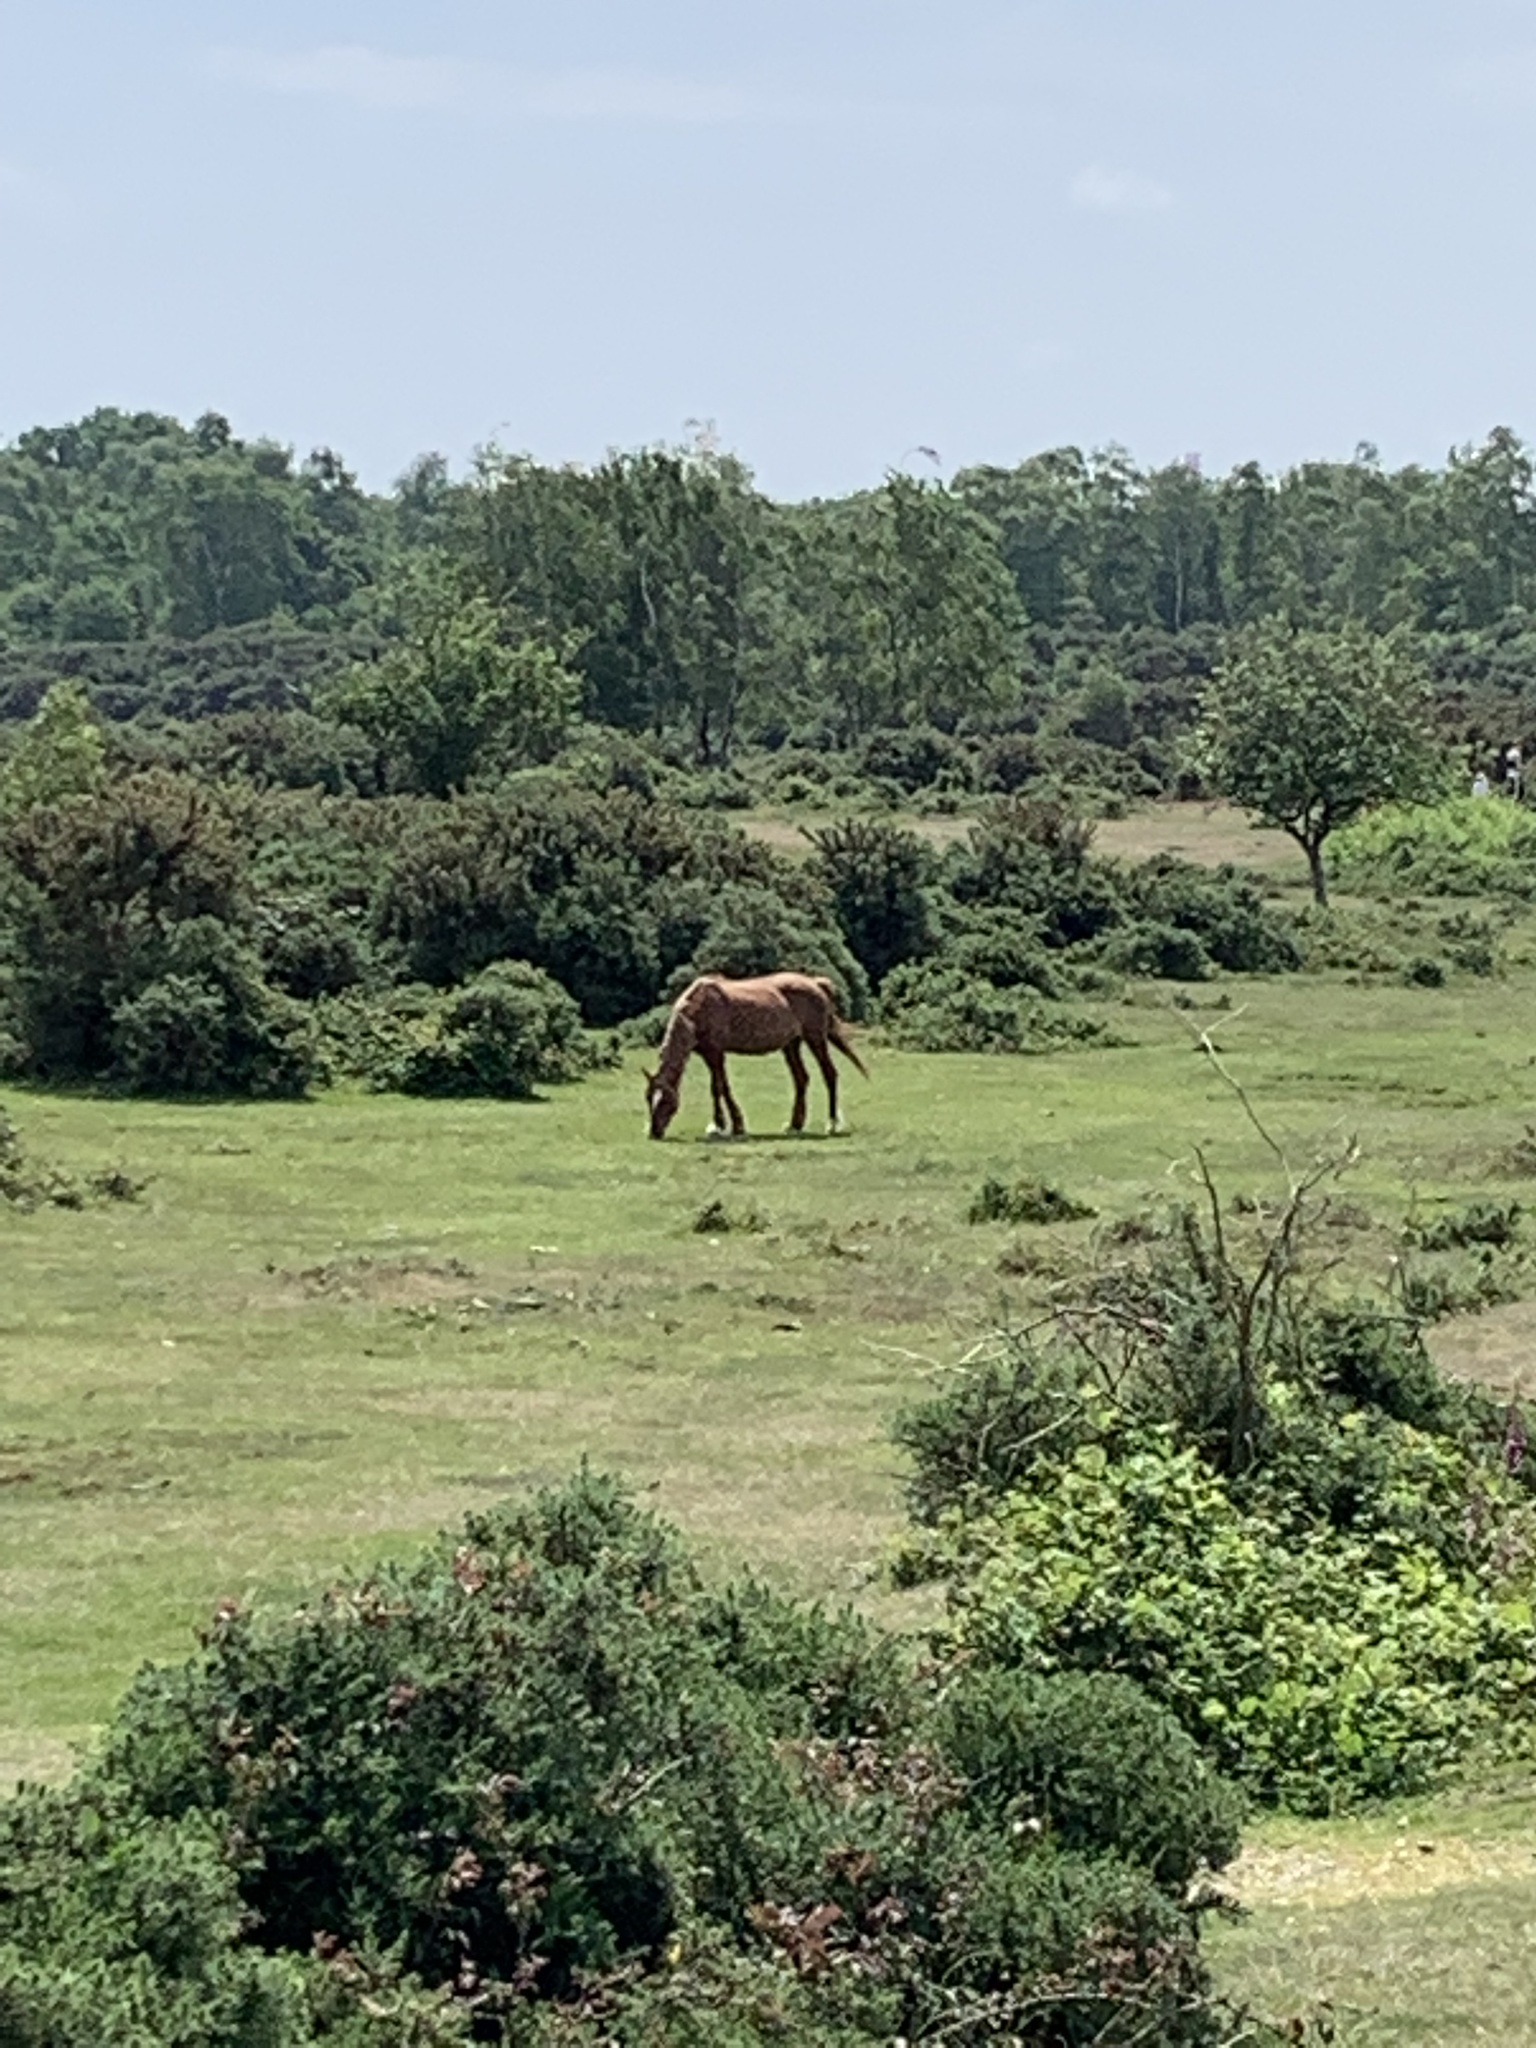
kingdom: Animalia
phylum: Chordata
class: Mammalia
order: Perissodactyla
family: Equidae
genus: Equus
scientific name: Equus caballus
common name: Horse
